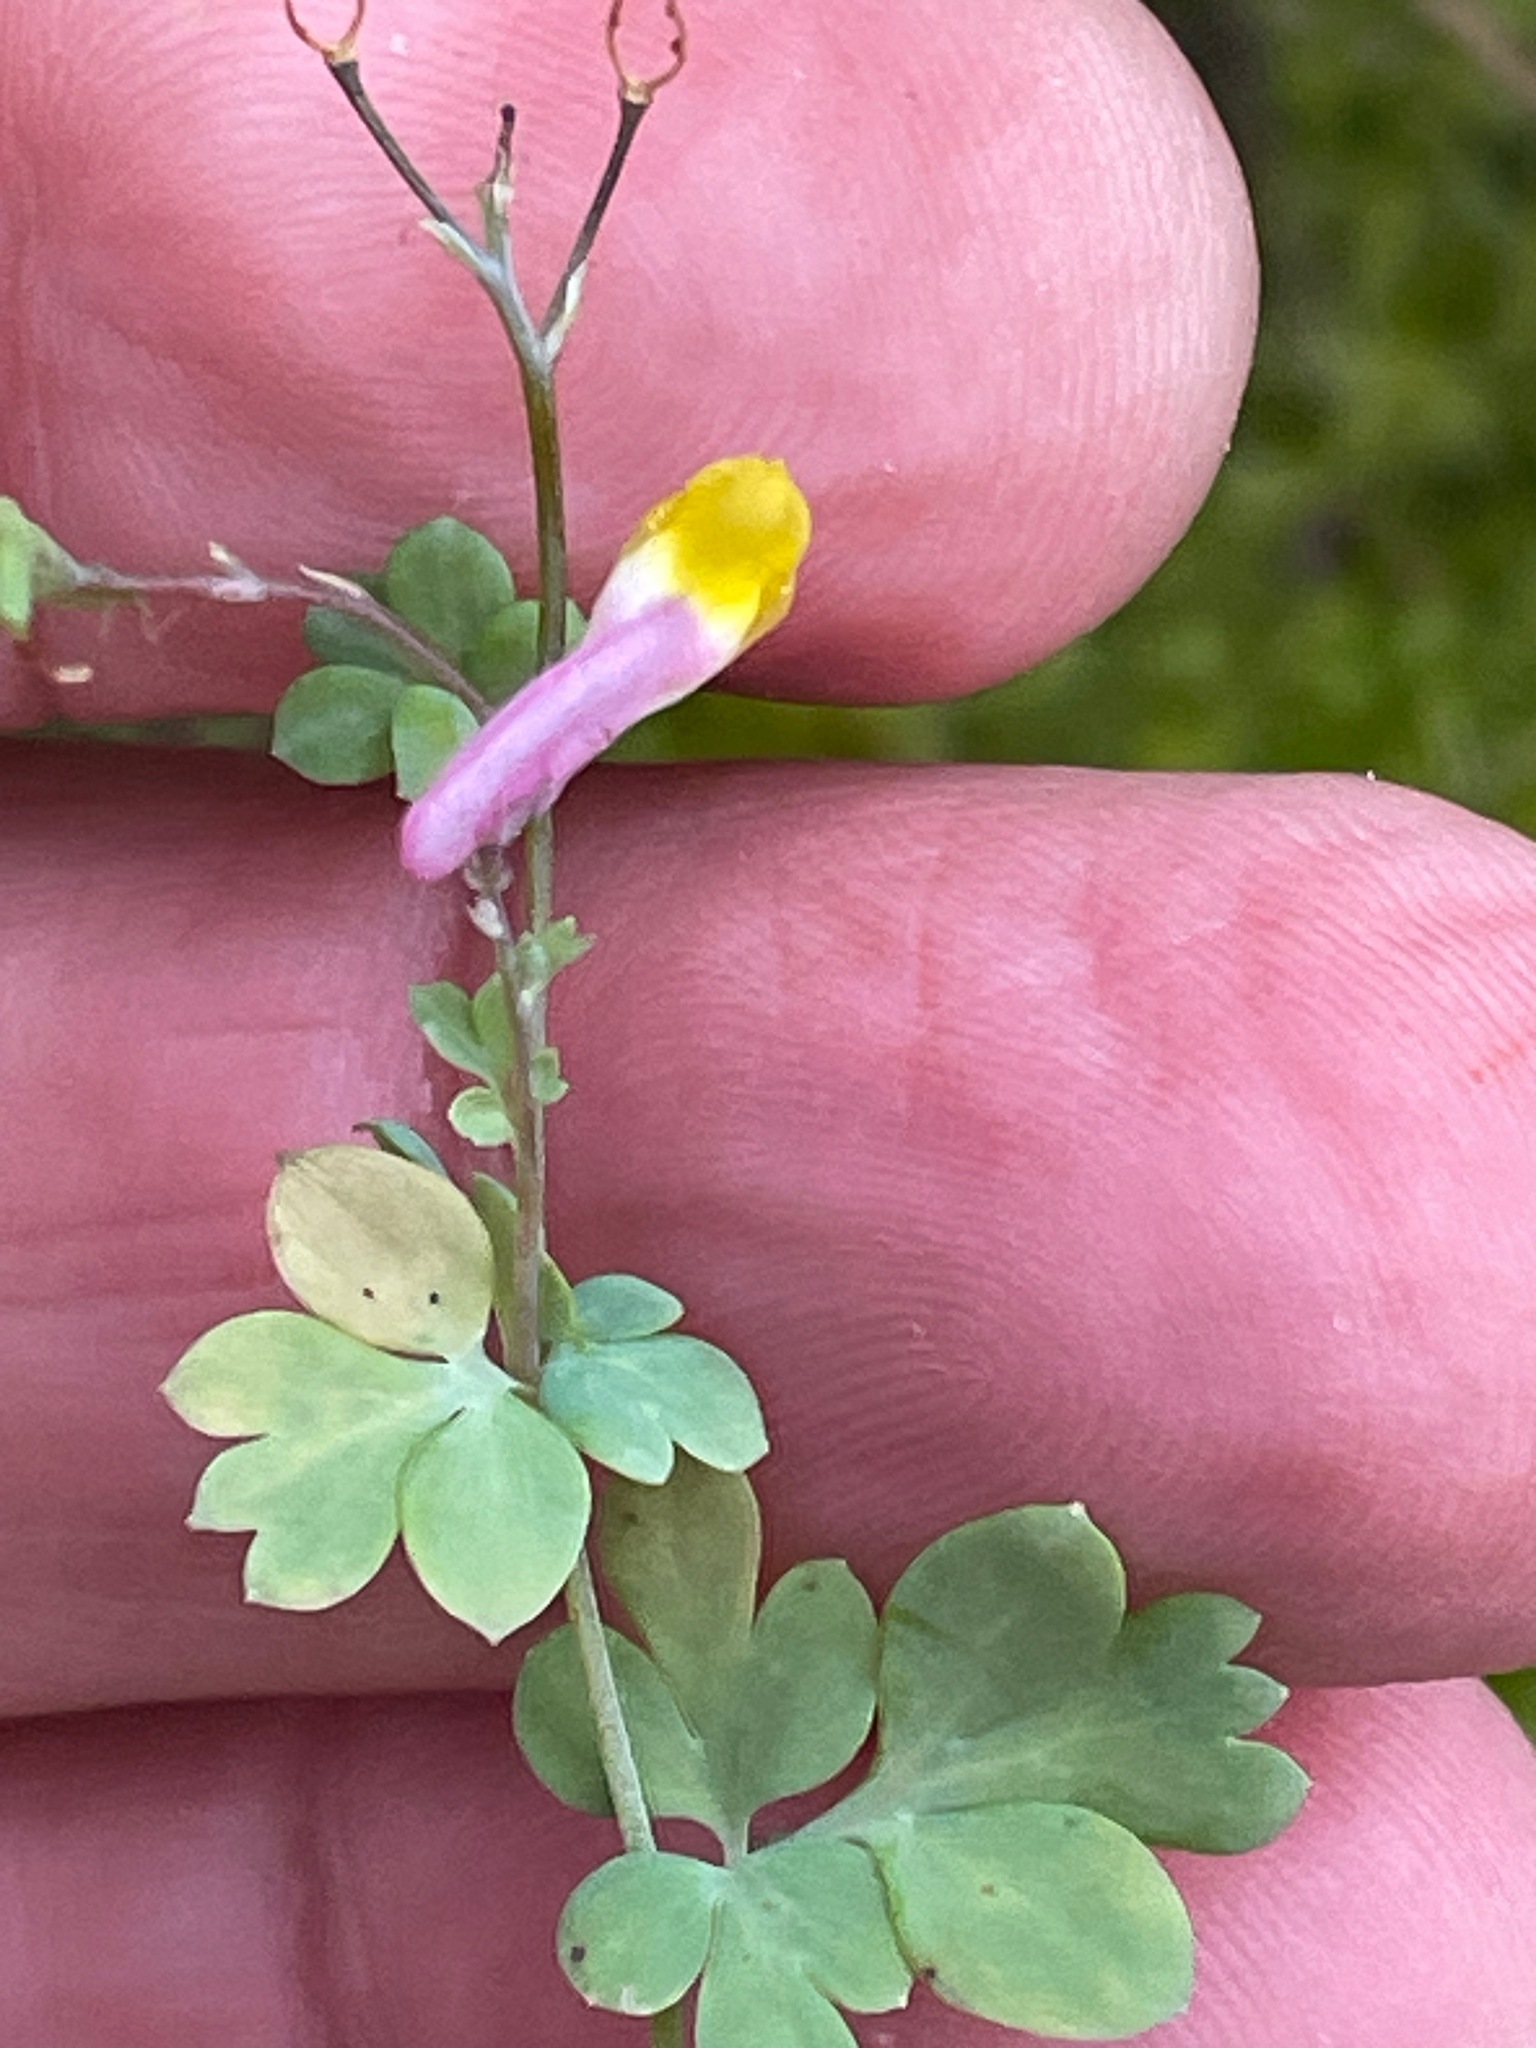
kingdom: Plantae
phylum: Tracheophyta
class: Magnoliopsida
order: Ranunculales
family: Papaveraceae
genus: Capnoides
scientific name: Capnoides sempervirens
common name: Rock harlequin
